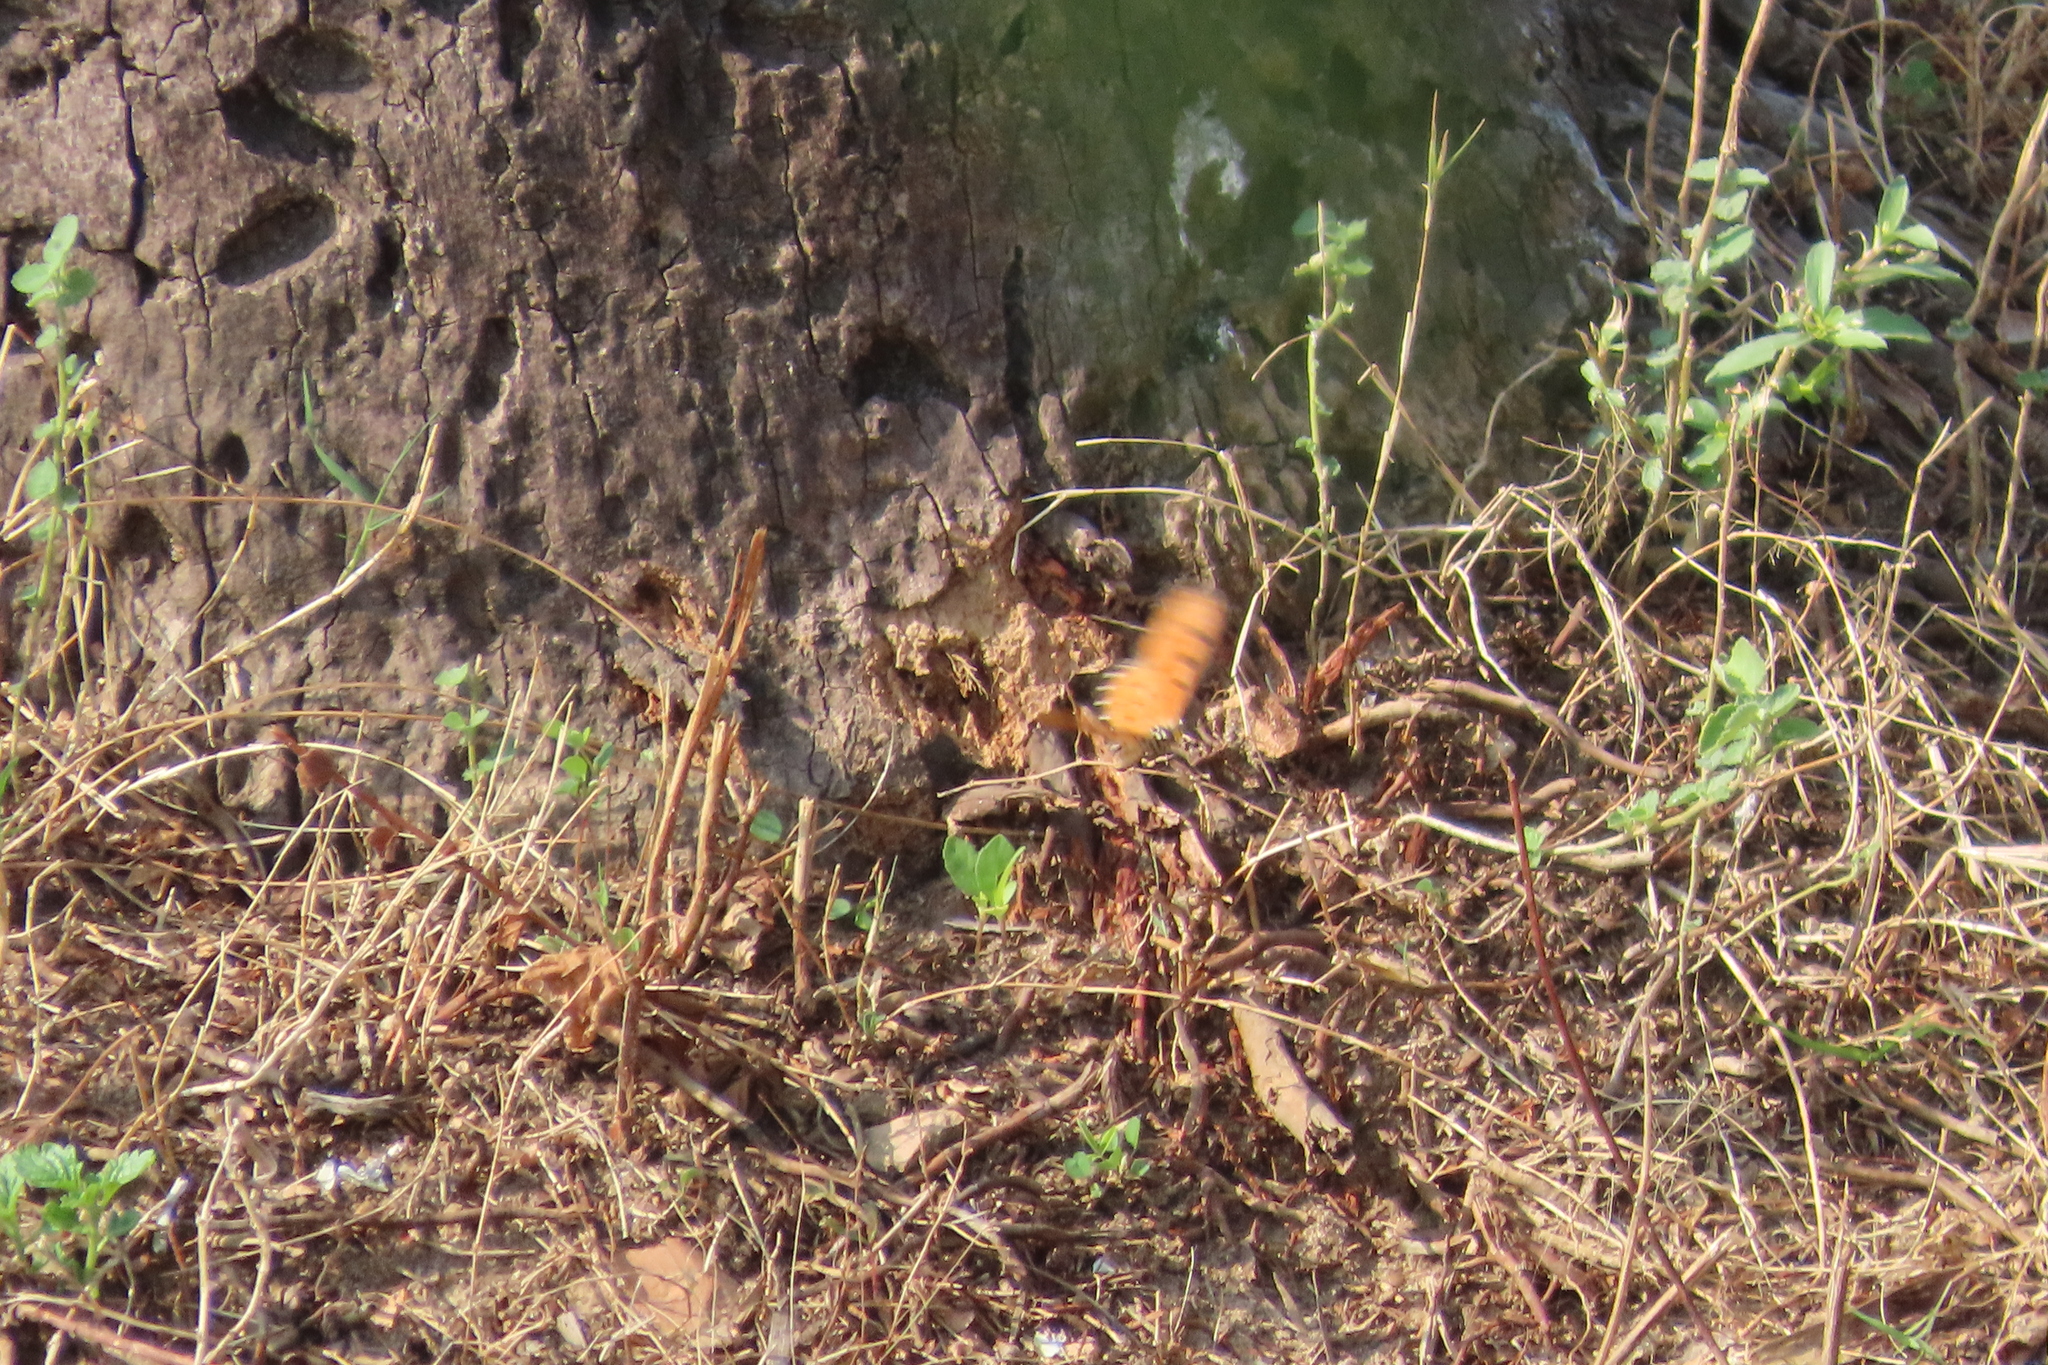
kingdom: Animalia
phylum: Arthropoda
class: Insecta
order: Lepidoptera
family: Nymphalidae
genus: Acraea
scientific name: Acraea terpsicore
